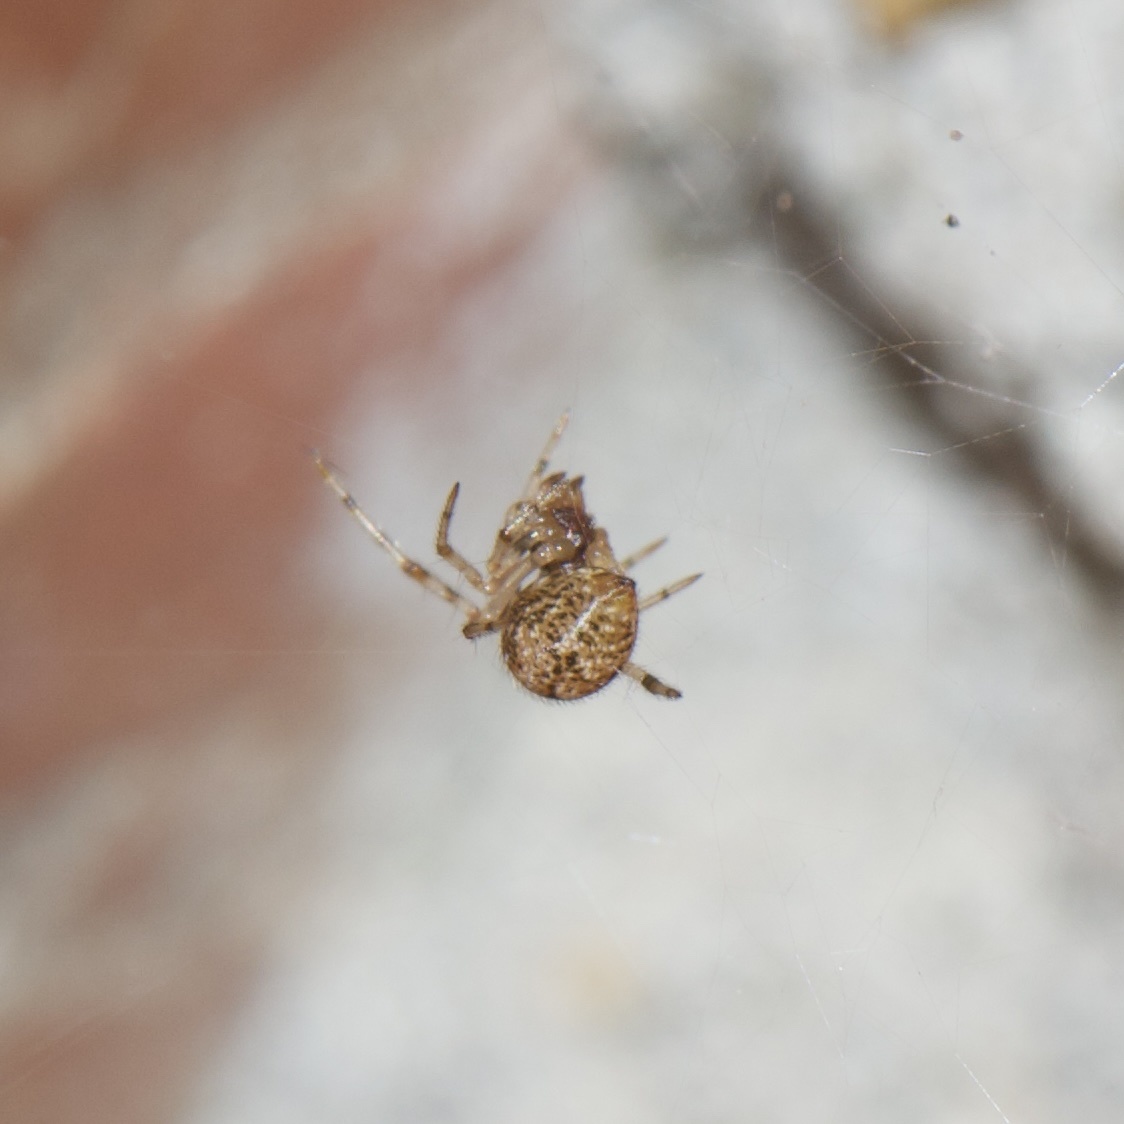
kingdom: Animalia
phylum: Arthropoda
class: Arachnida
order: Araneae
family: Theridiidae
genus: Parasteatoda
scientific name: Parasteatoda tepidariorum
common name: Common house spider
